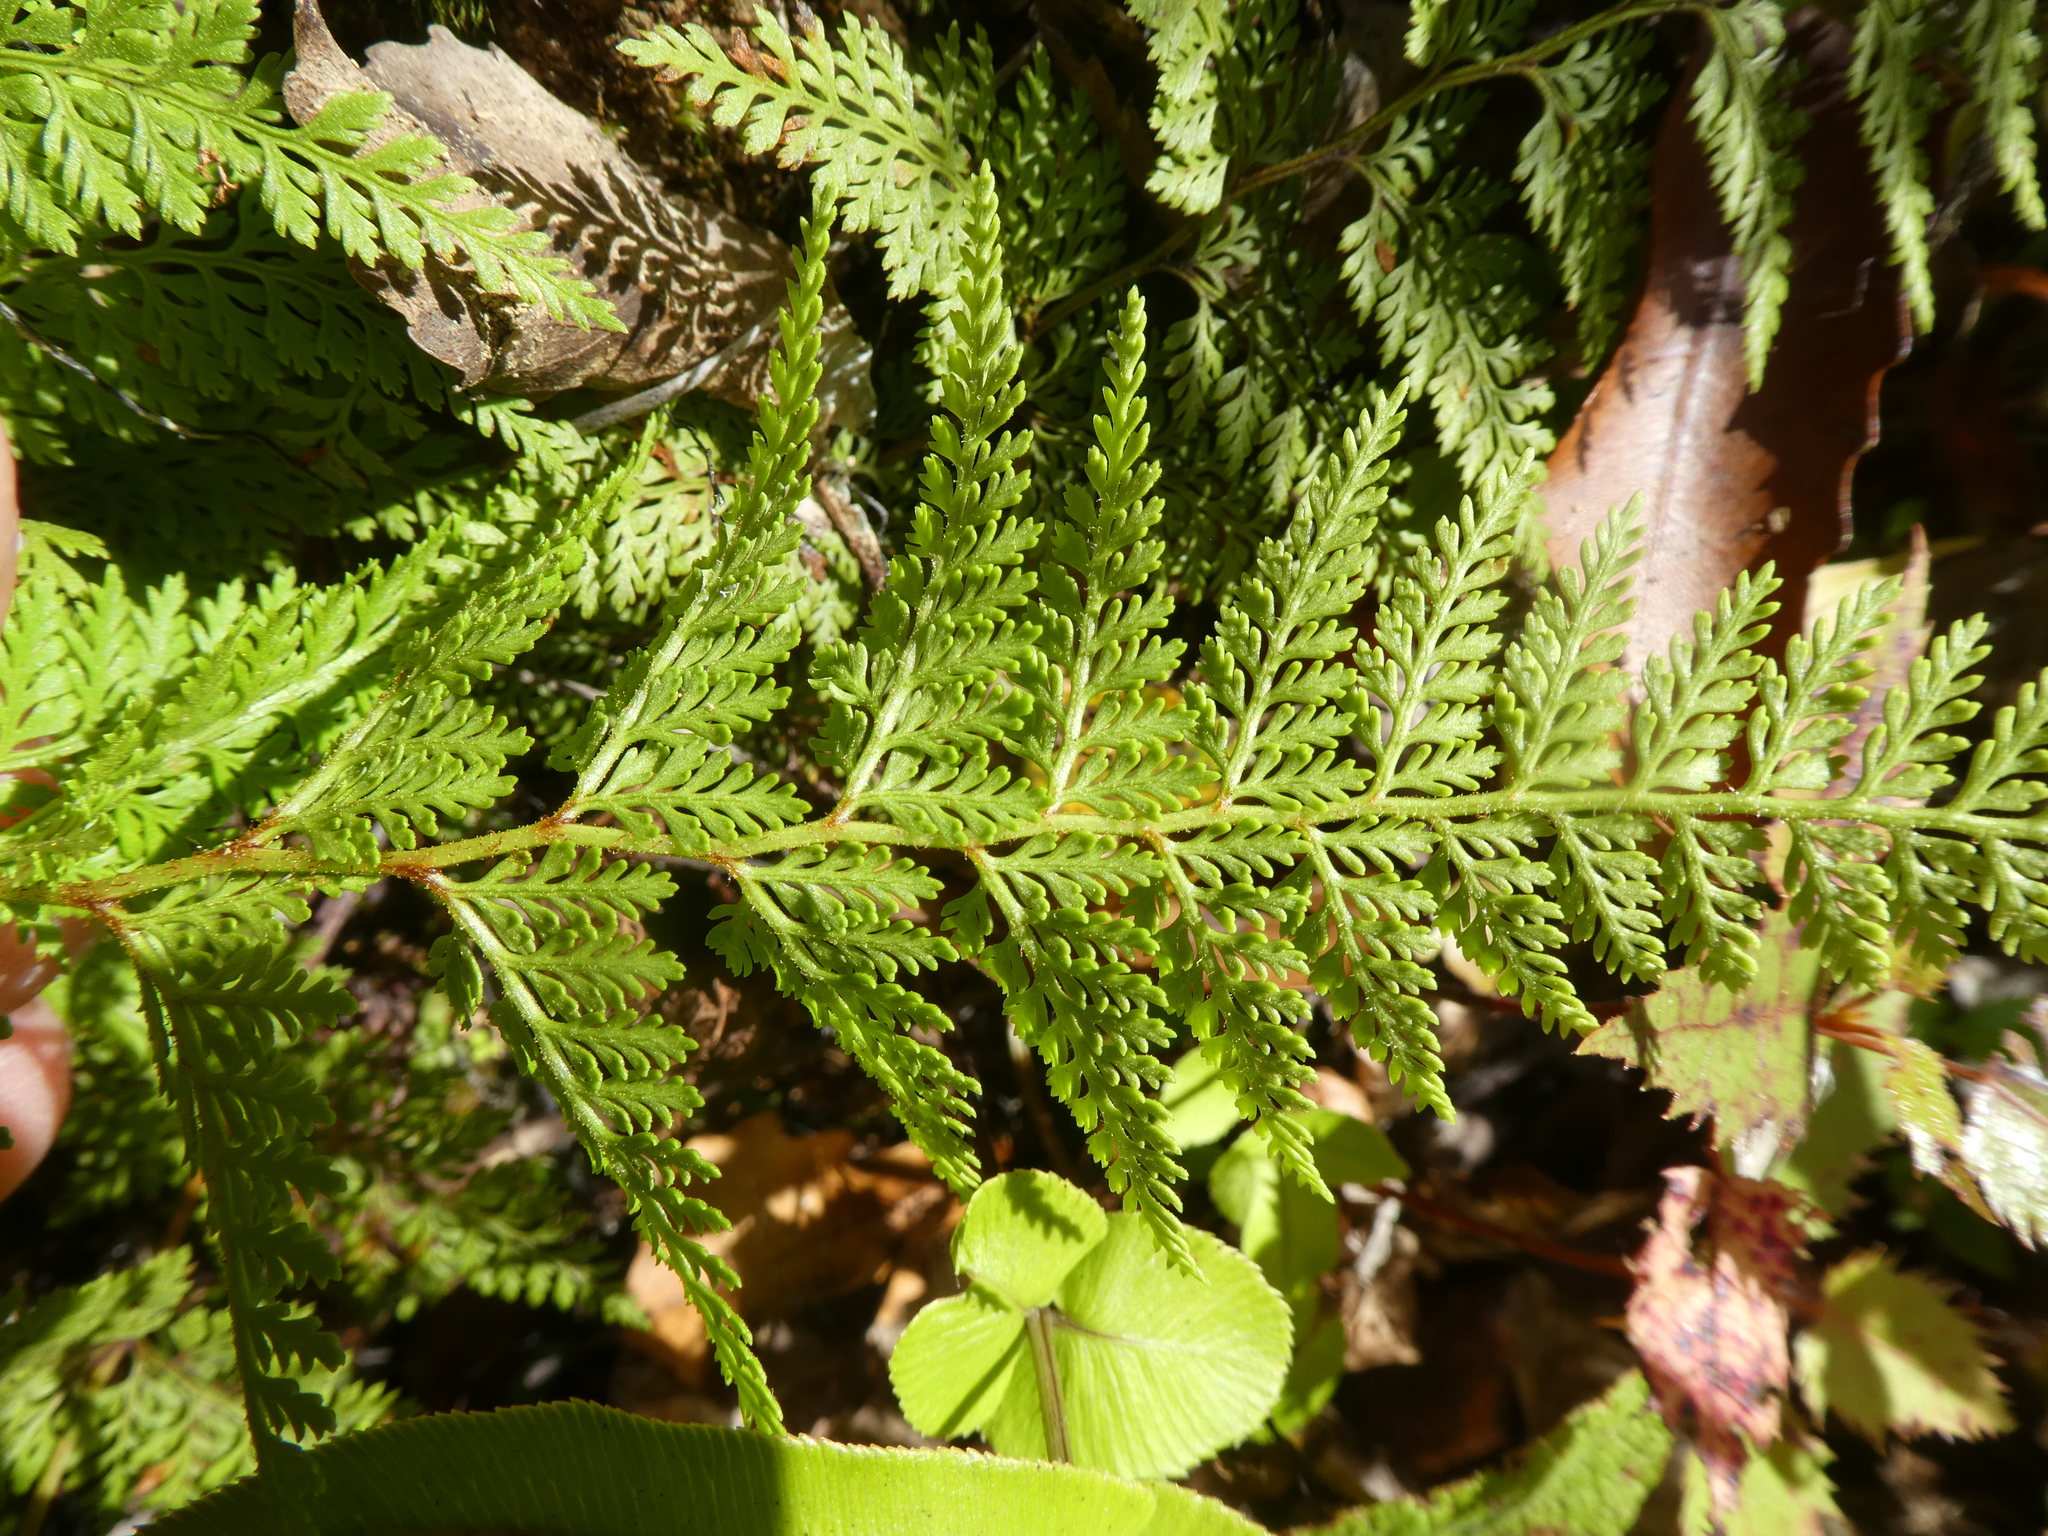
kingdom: Plantae
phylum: Tracheophyta
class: Polypodiopsida
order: Polypodiales
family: Dennstaedtiaceae
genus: Paesia
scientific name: Paesia scaberula
